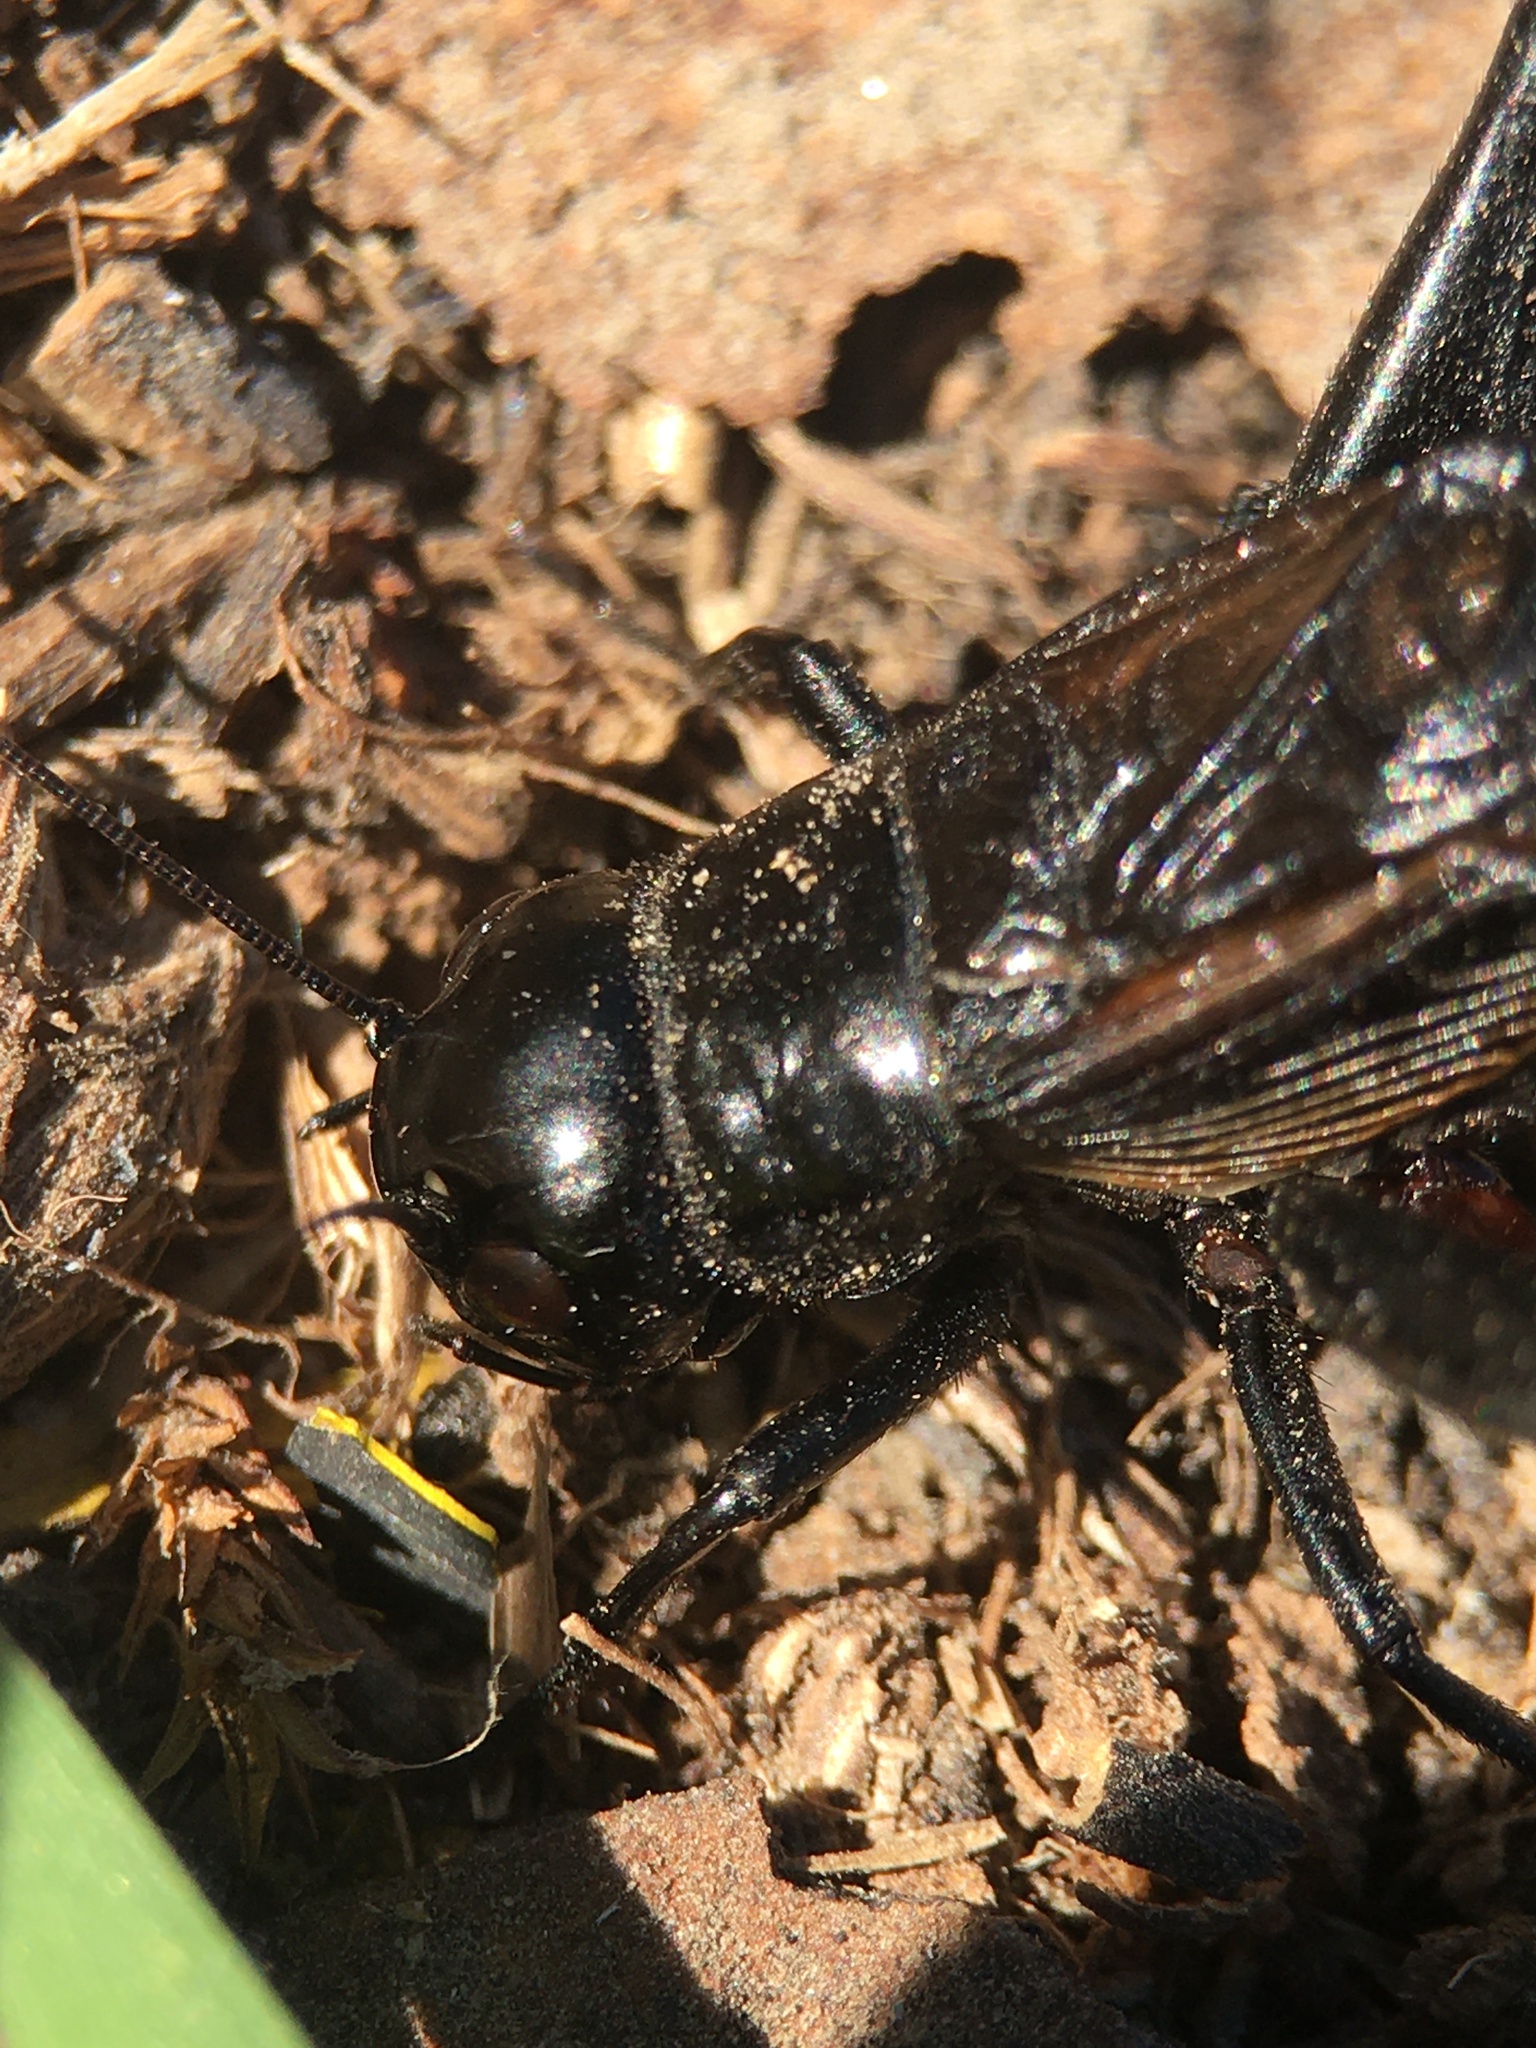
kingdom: Animalia
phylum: Arthropoda
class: Insecta
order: Orthoptera
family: Gryllidae
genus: Gryllus
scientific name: Gryllus pennsylvanicus
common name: Fall field cricket
